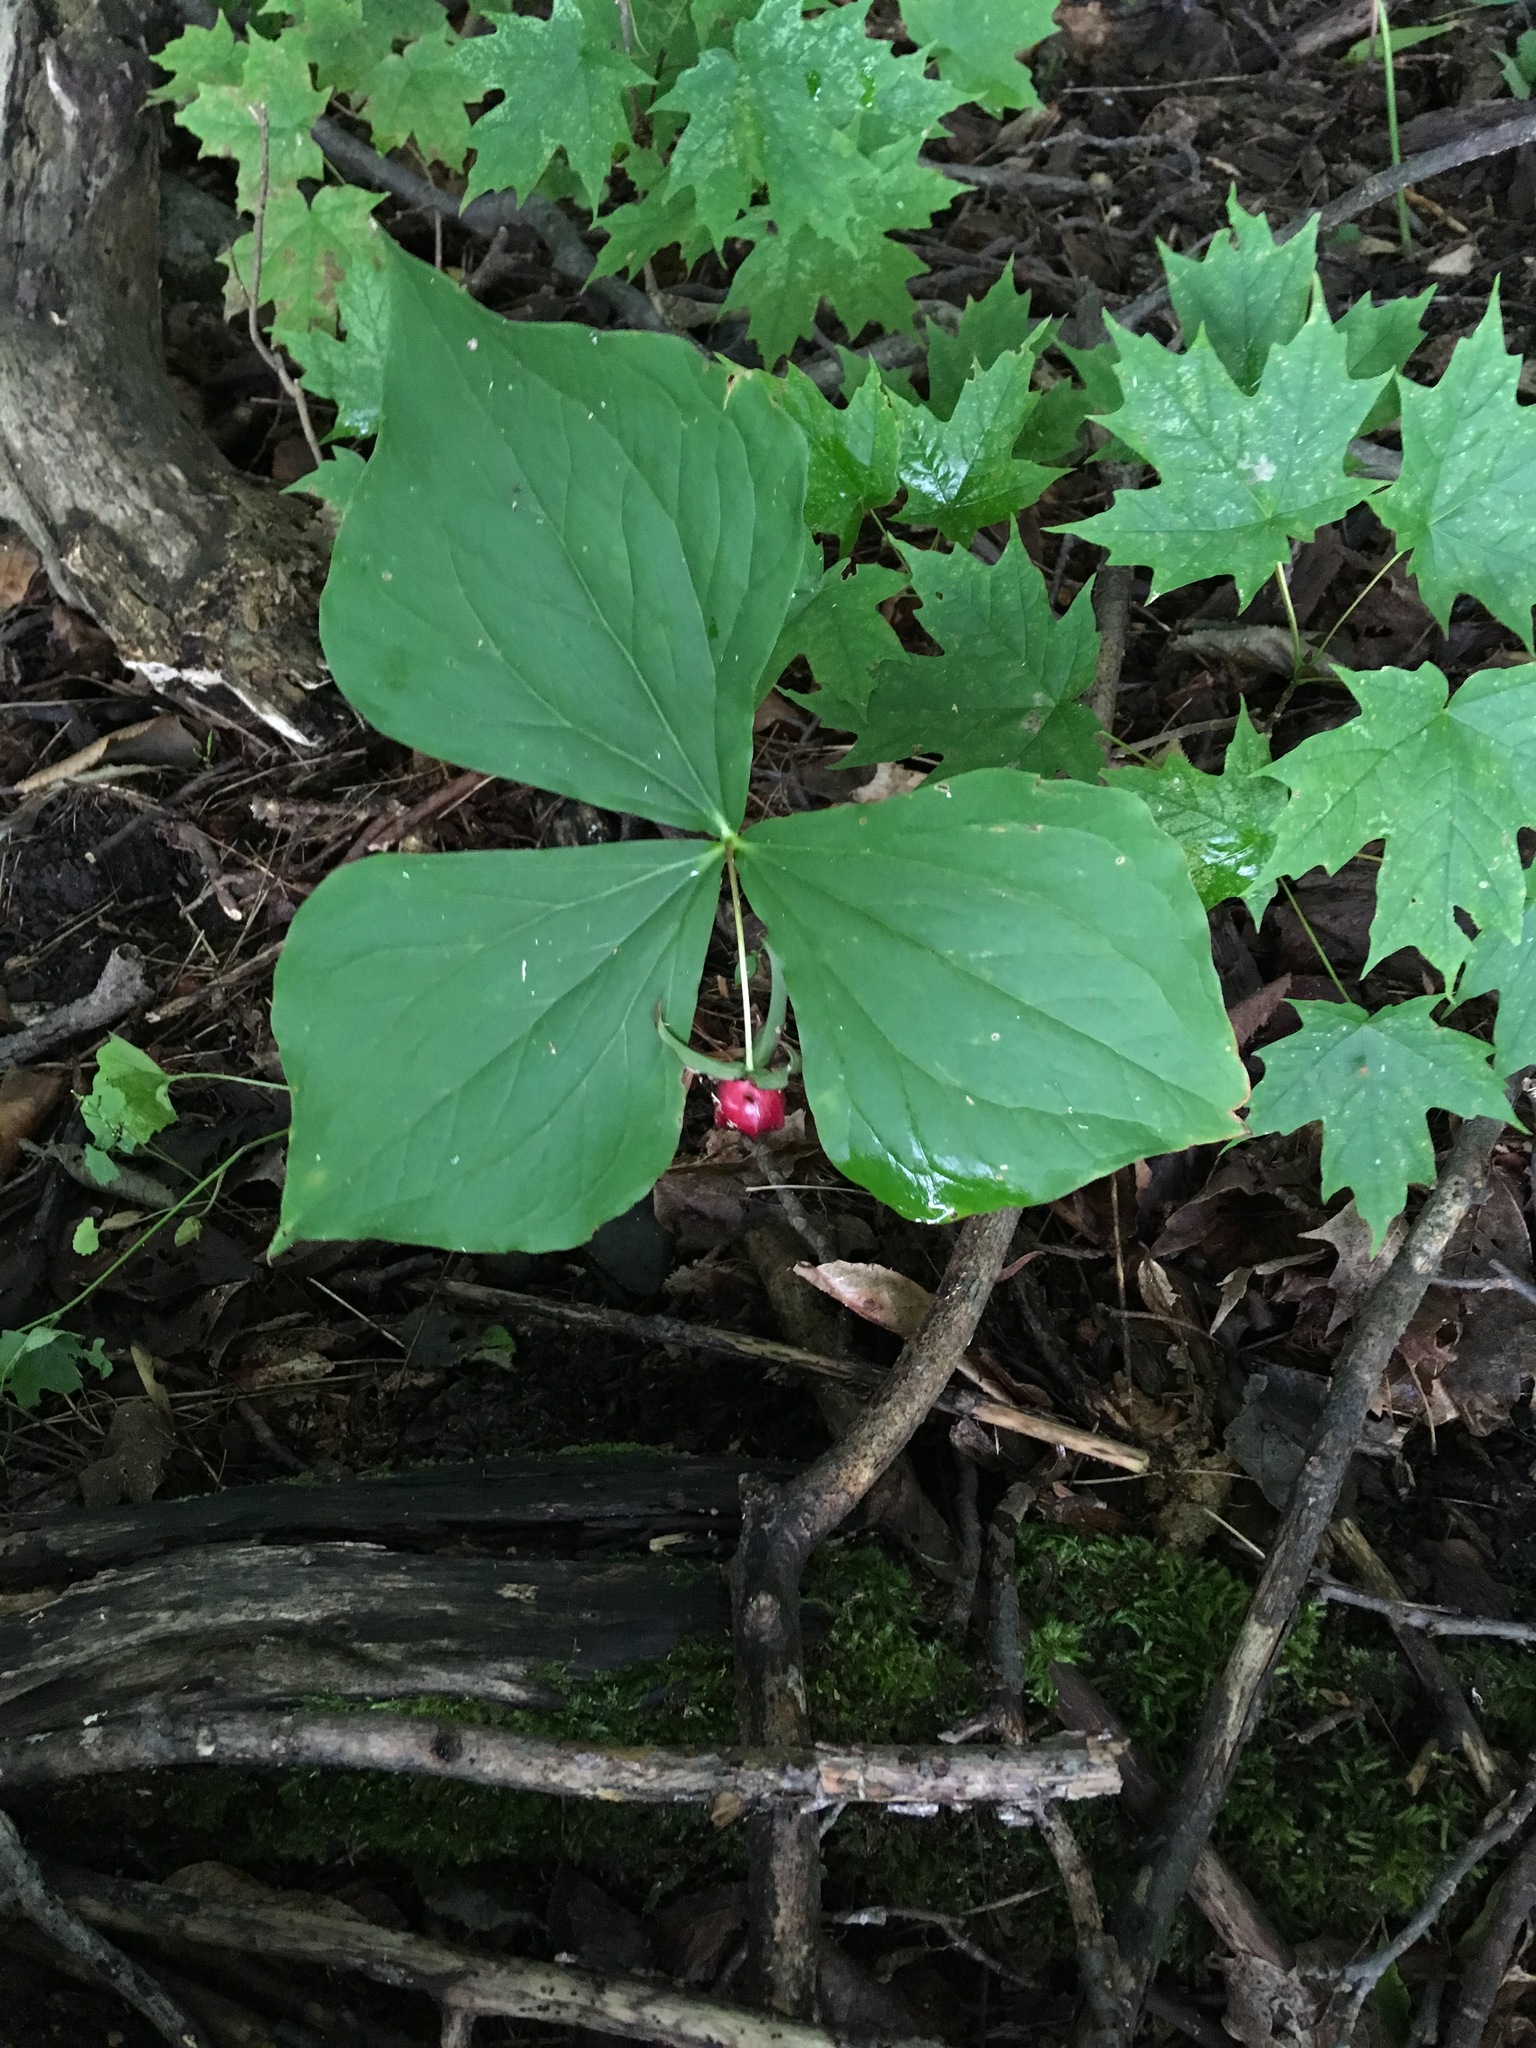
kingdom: Plantae
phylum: Tracheophyta
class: Liliopsida
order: Liliales
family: Melanthiaceae
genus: Trillium
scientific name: Trillium erectum
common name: Purple trillium
